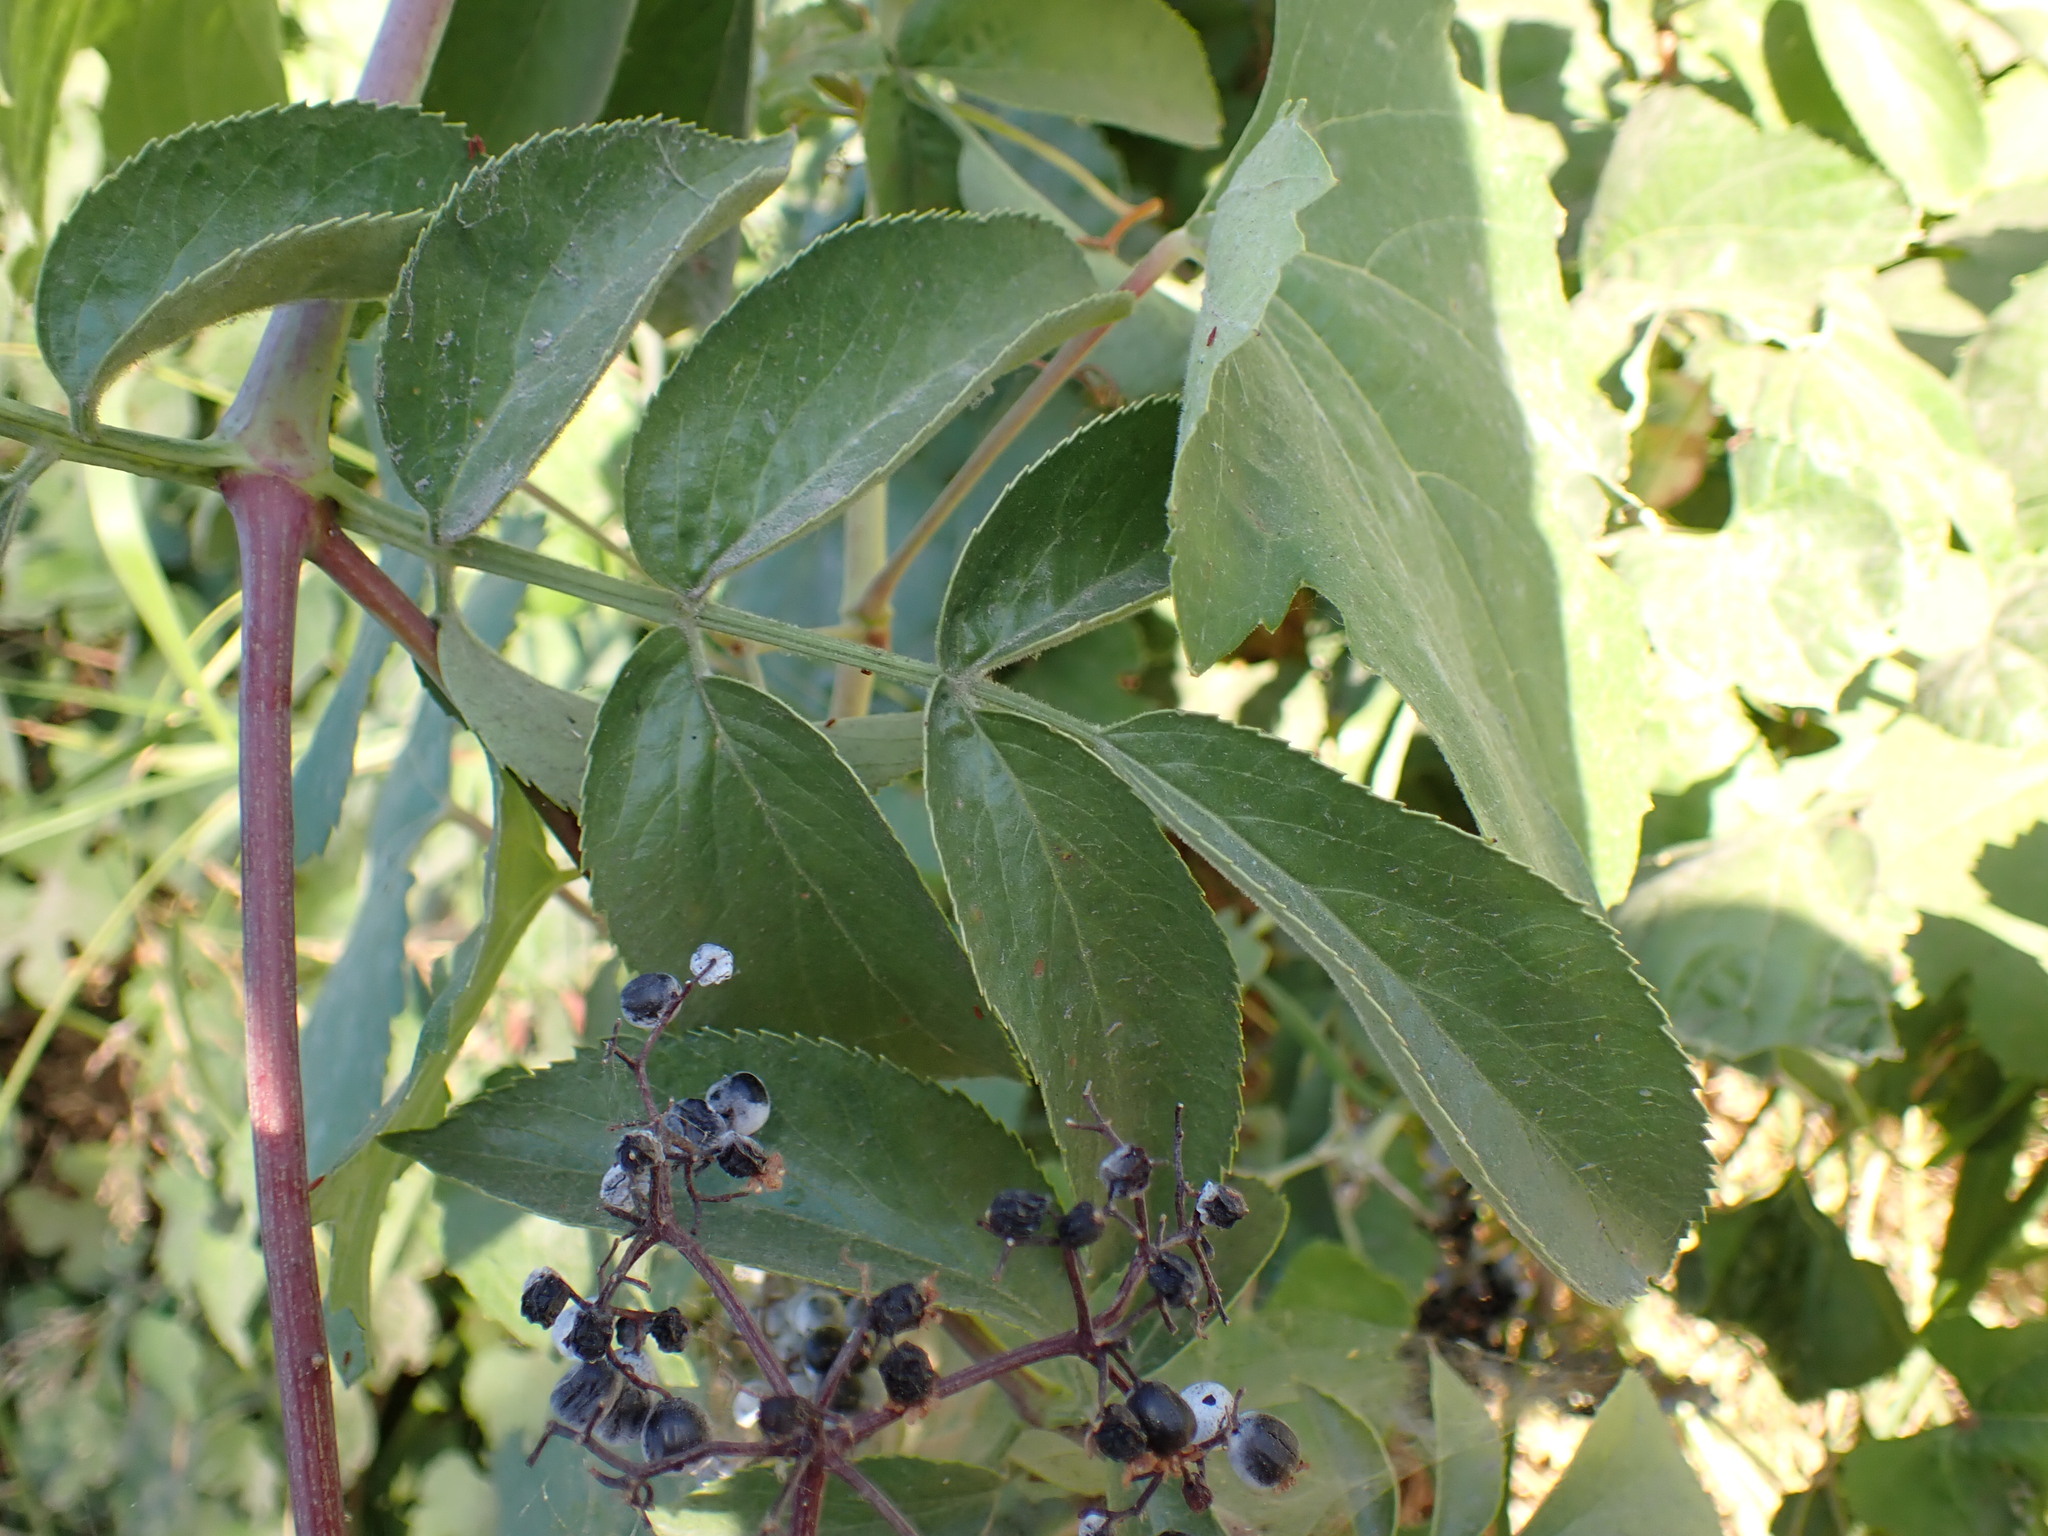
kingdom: Plantae
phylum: Tracheophyta
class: Magnoliopsida
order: Dipsacales
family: Viburnaceae
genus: Sambucus
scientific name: Sambucus cerulea
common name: Blue elder
